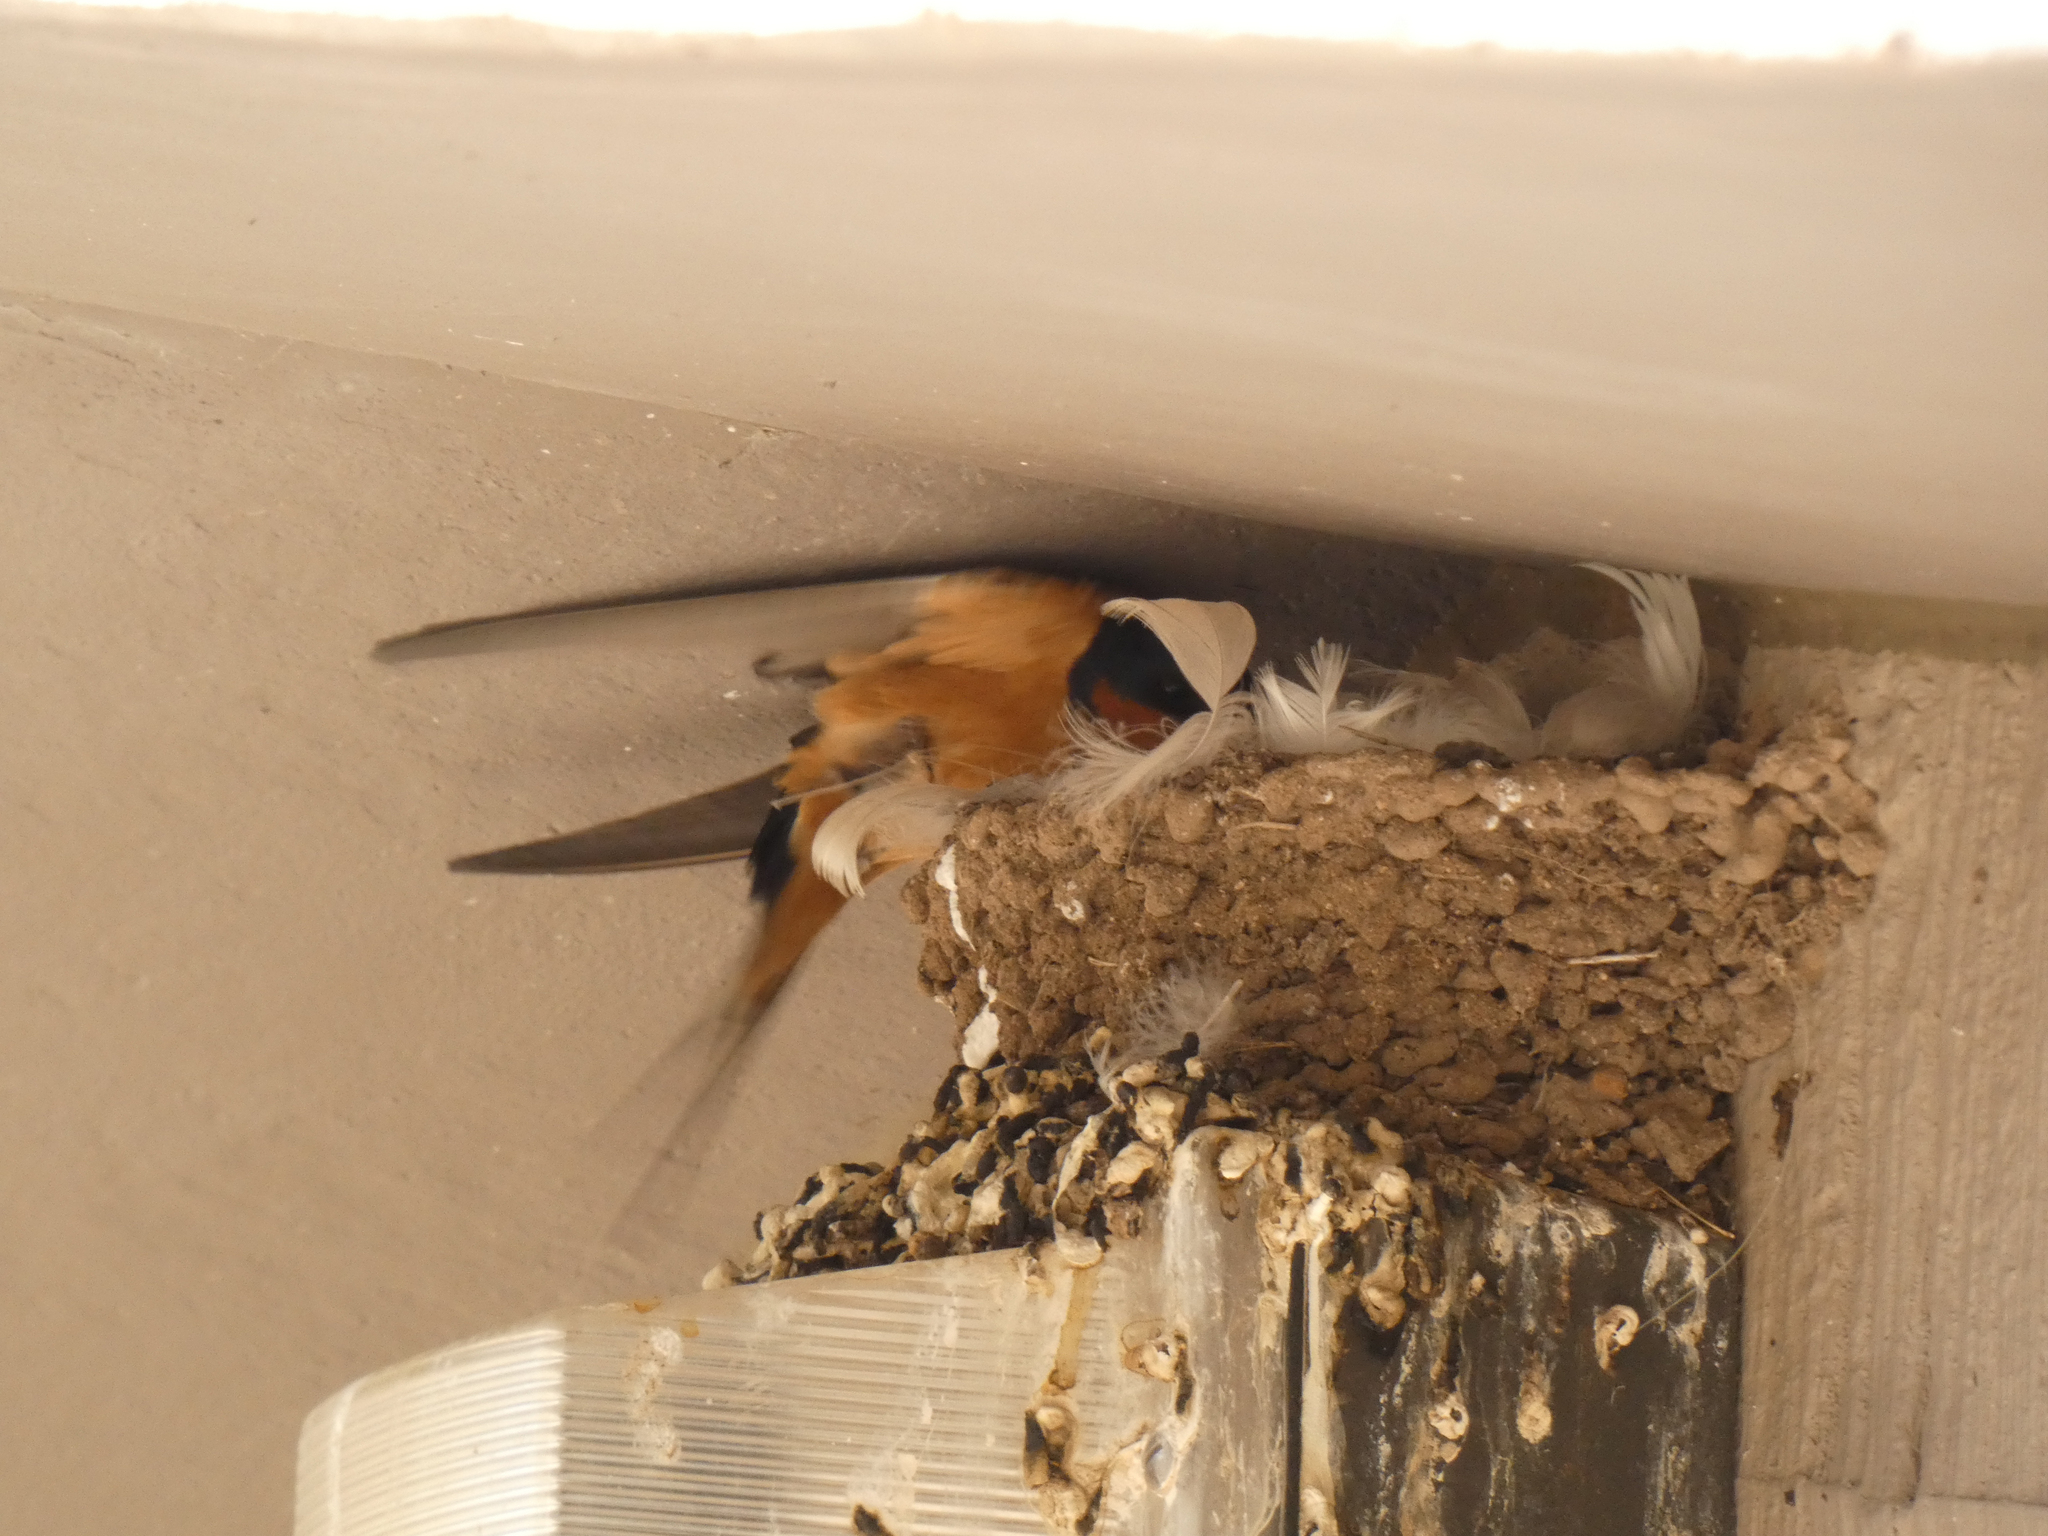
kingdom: Animalia
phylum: Chordata
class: Aves
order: Passeriformes
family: Hirundinidae
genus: Hirundo
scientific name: Hirundo rustica
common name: Barn swallow
